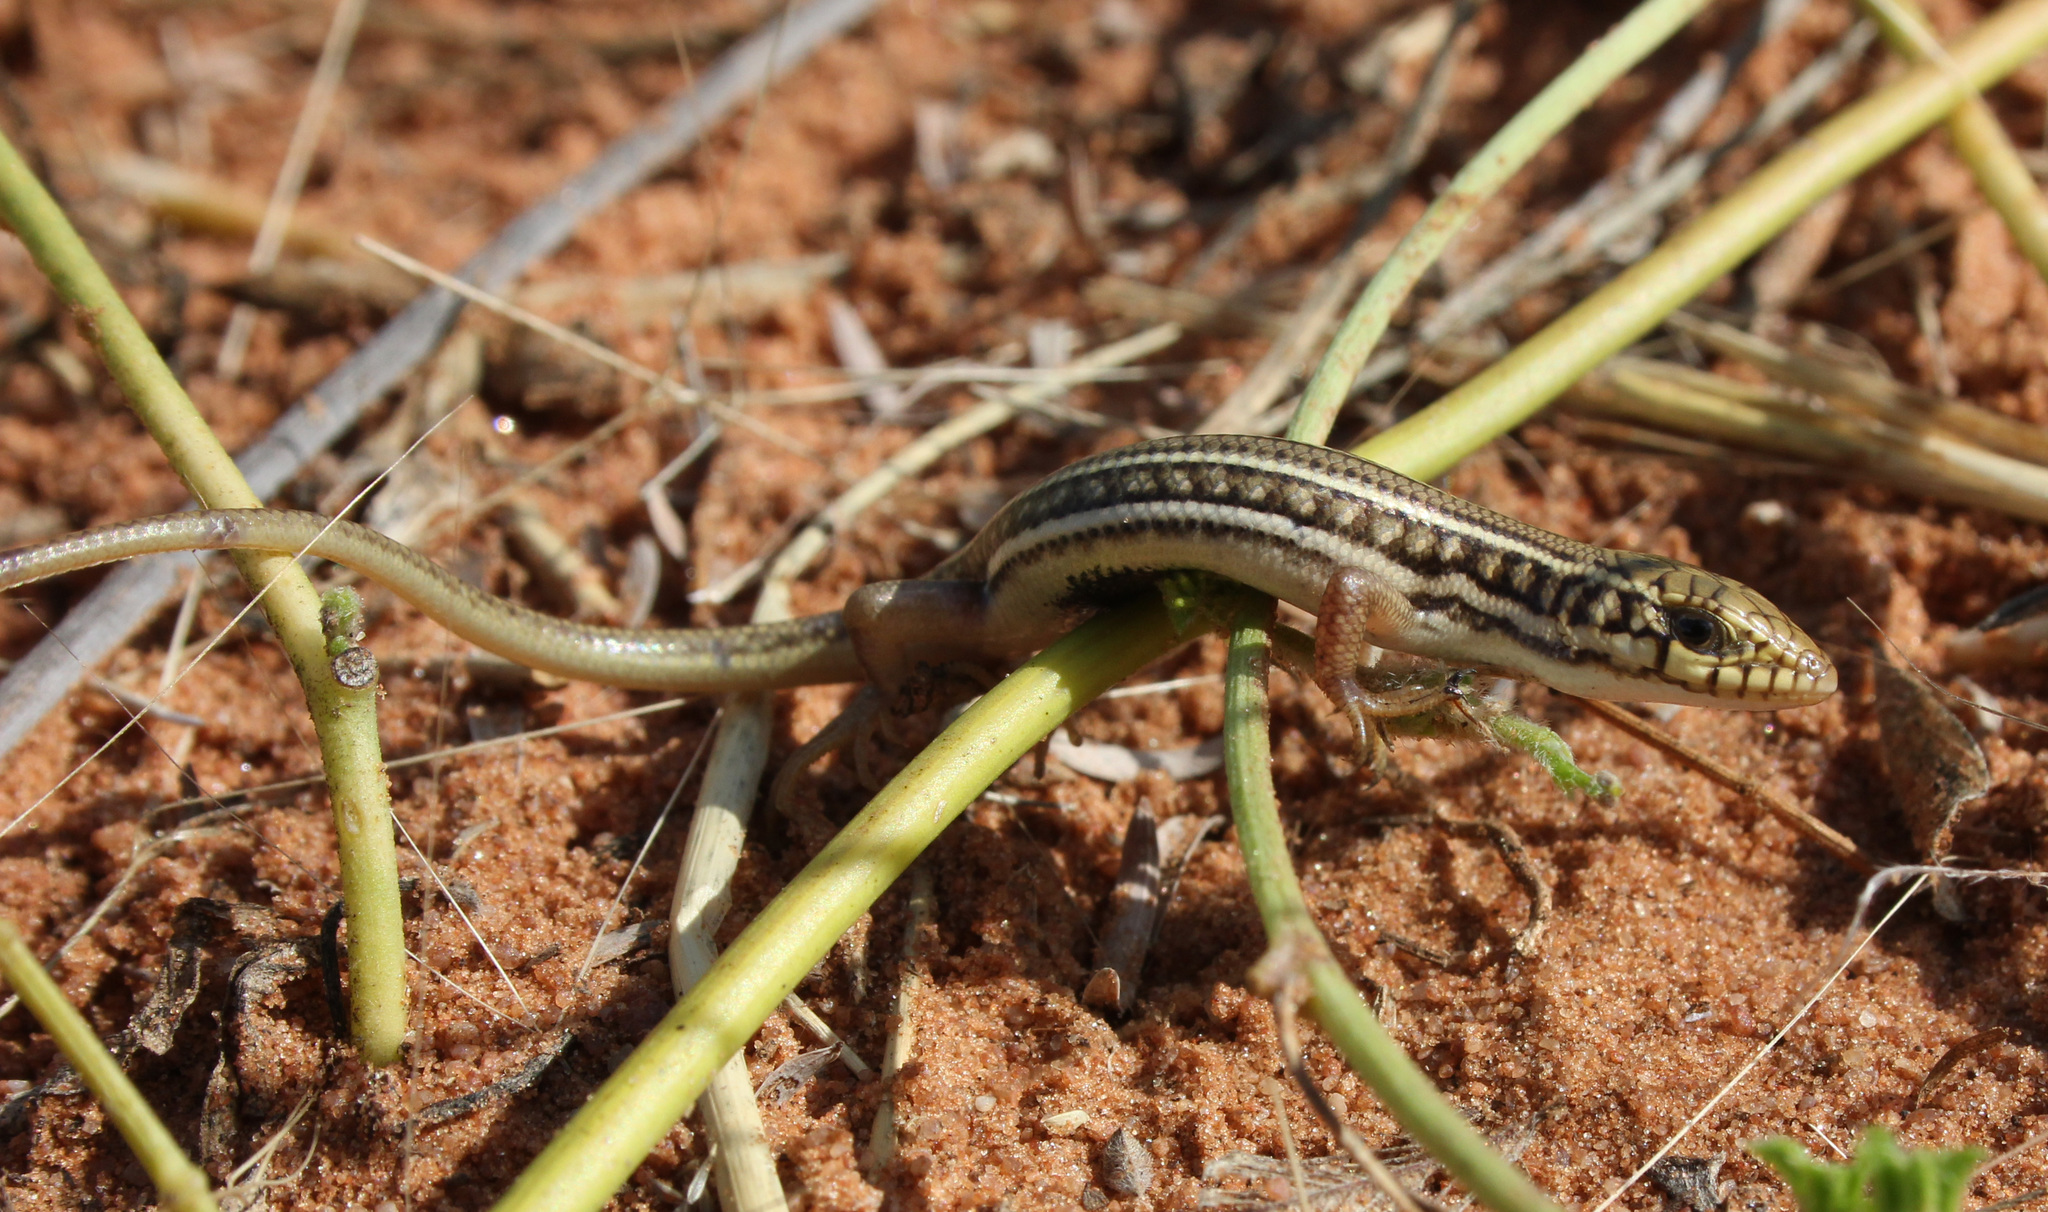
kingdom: Animalia
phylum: Chordata
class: Squamata
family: Scincidae
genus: Trachylepis
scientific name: Trachylepis occidentalis
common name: Western three-striped skink
